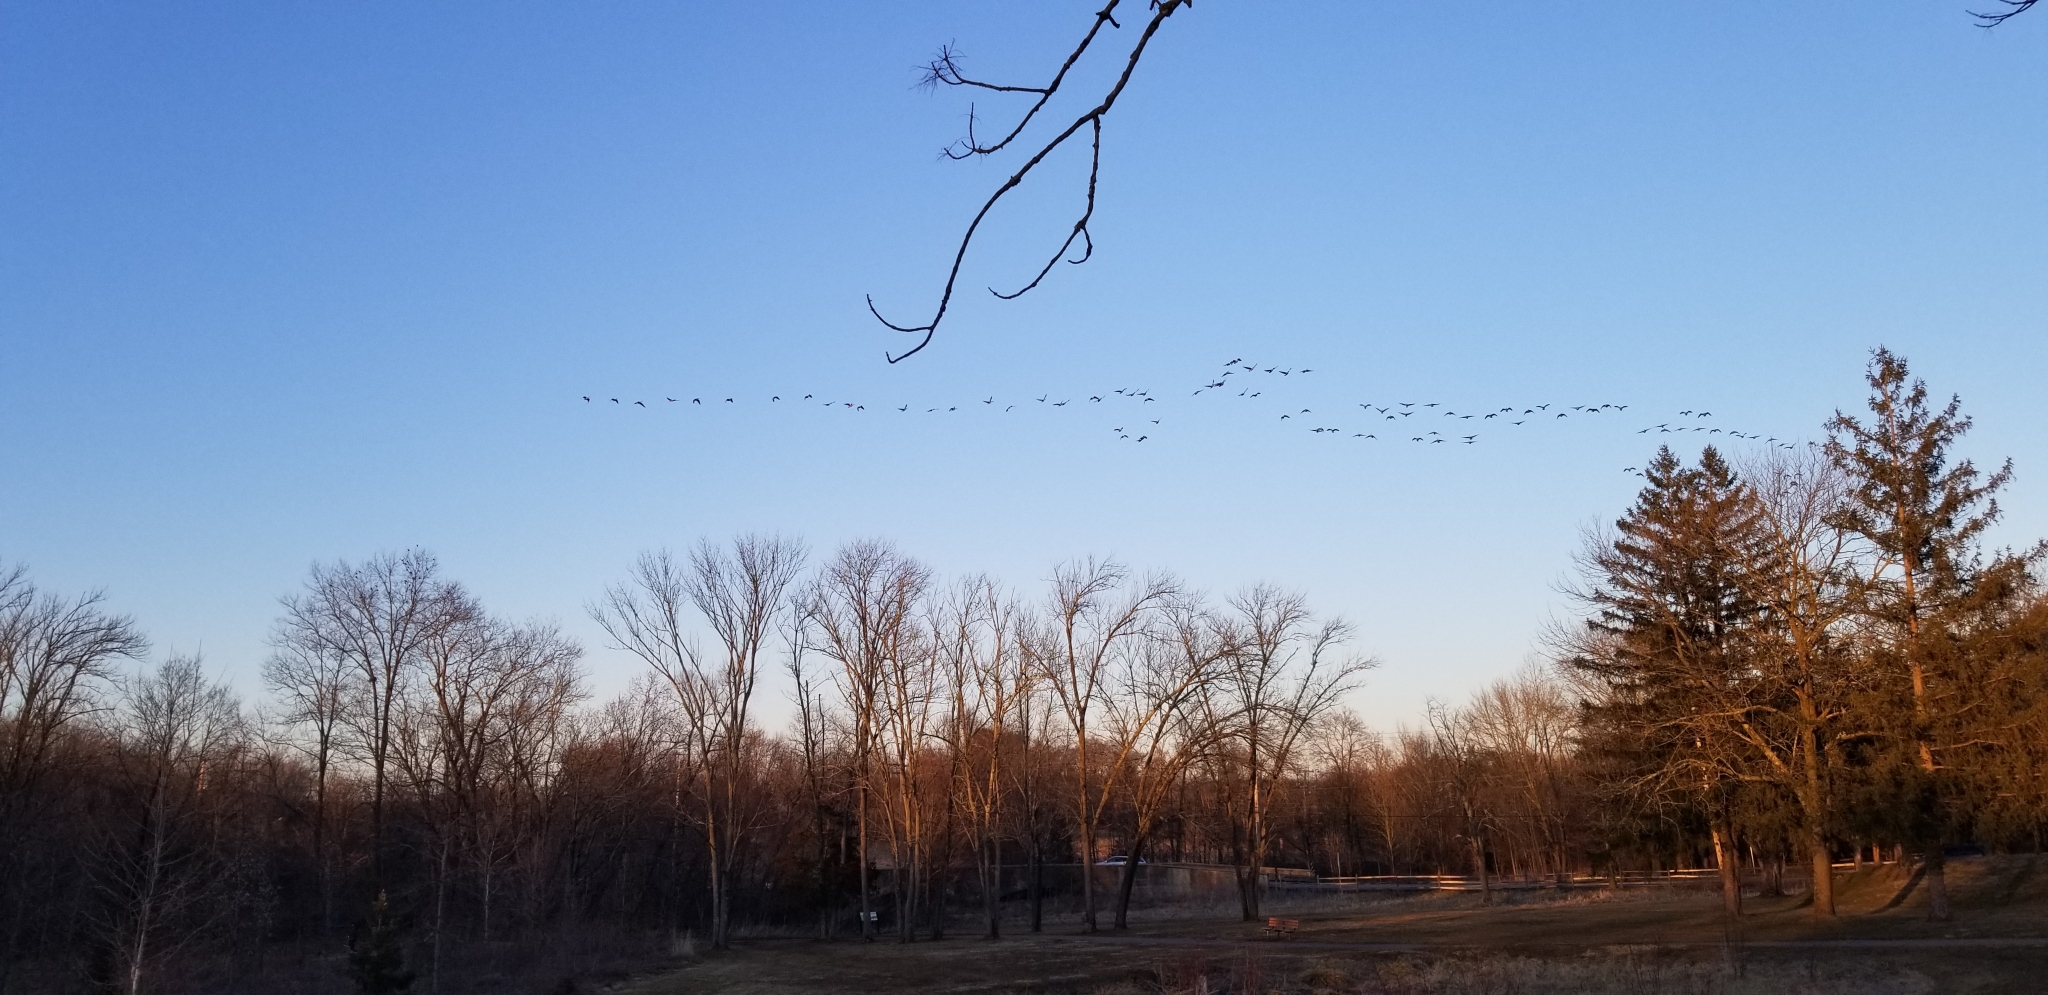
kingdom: Animalia
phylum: Chordata
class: Aves
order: Anseriformes
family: Anatidae
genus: Branta
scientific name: Branta canadensis
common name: Canada goose
